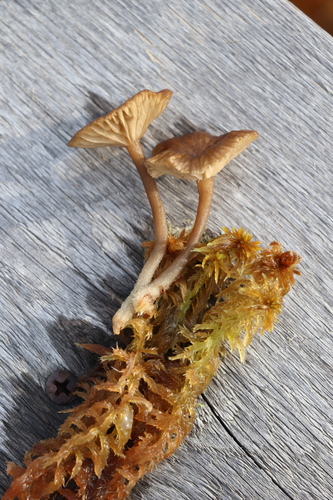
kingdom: Fungi
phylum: Basidiomycota
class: Agaricomycetes
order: Agaricales
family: Hygrophoraceae
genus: Lichenomphalia
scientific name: Lichenomphalia umbellifera
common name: Heath navel
